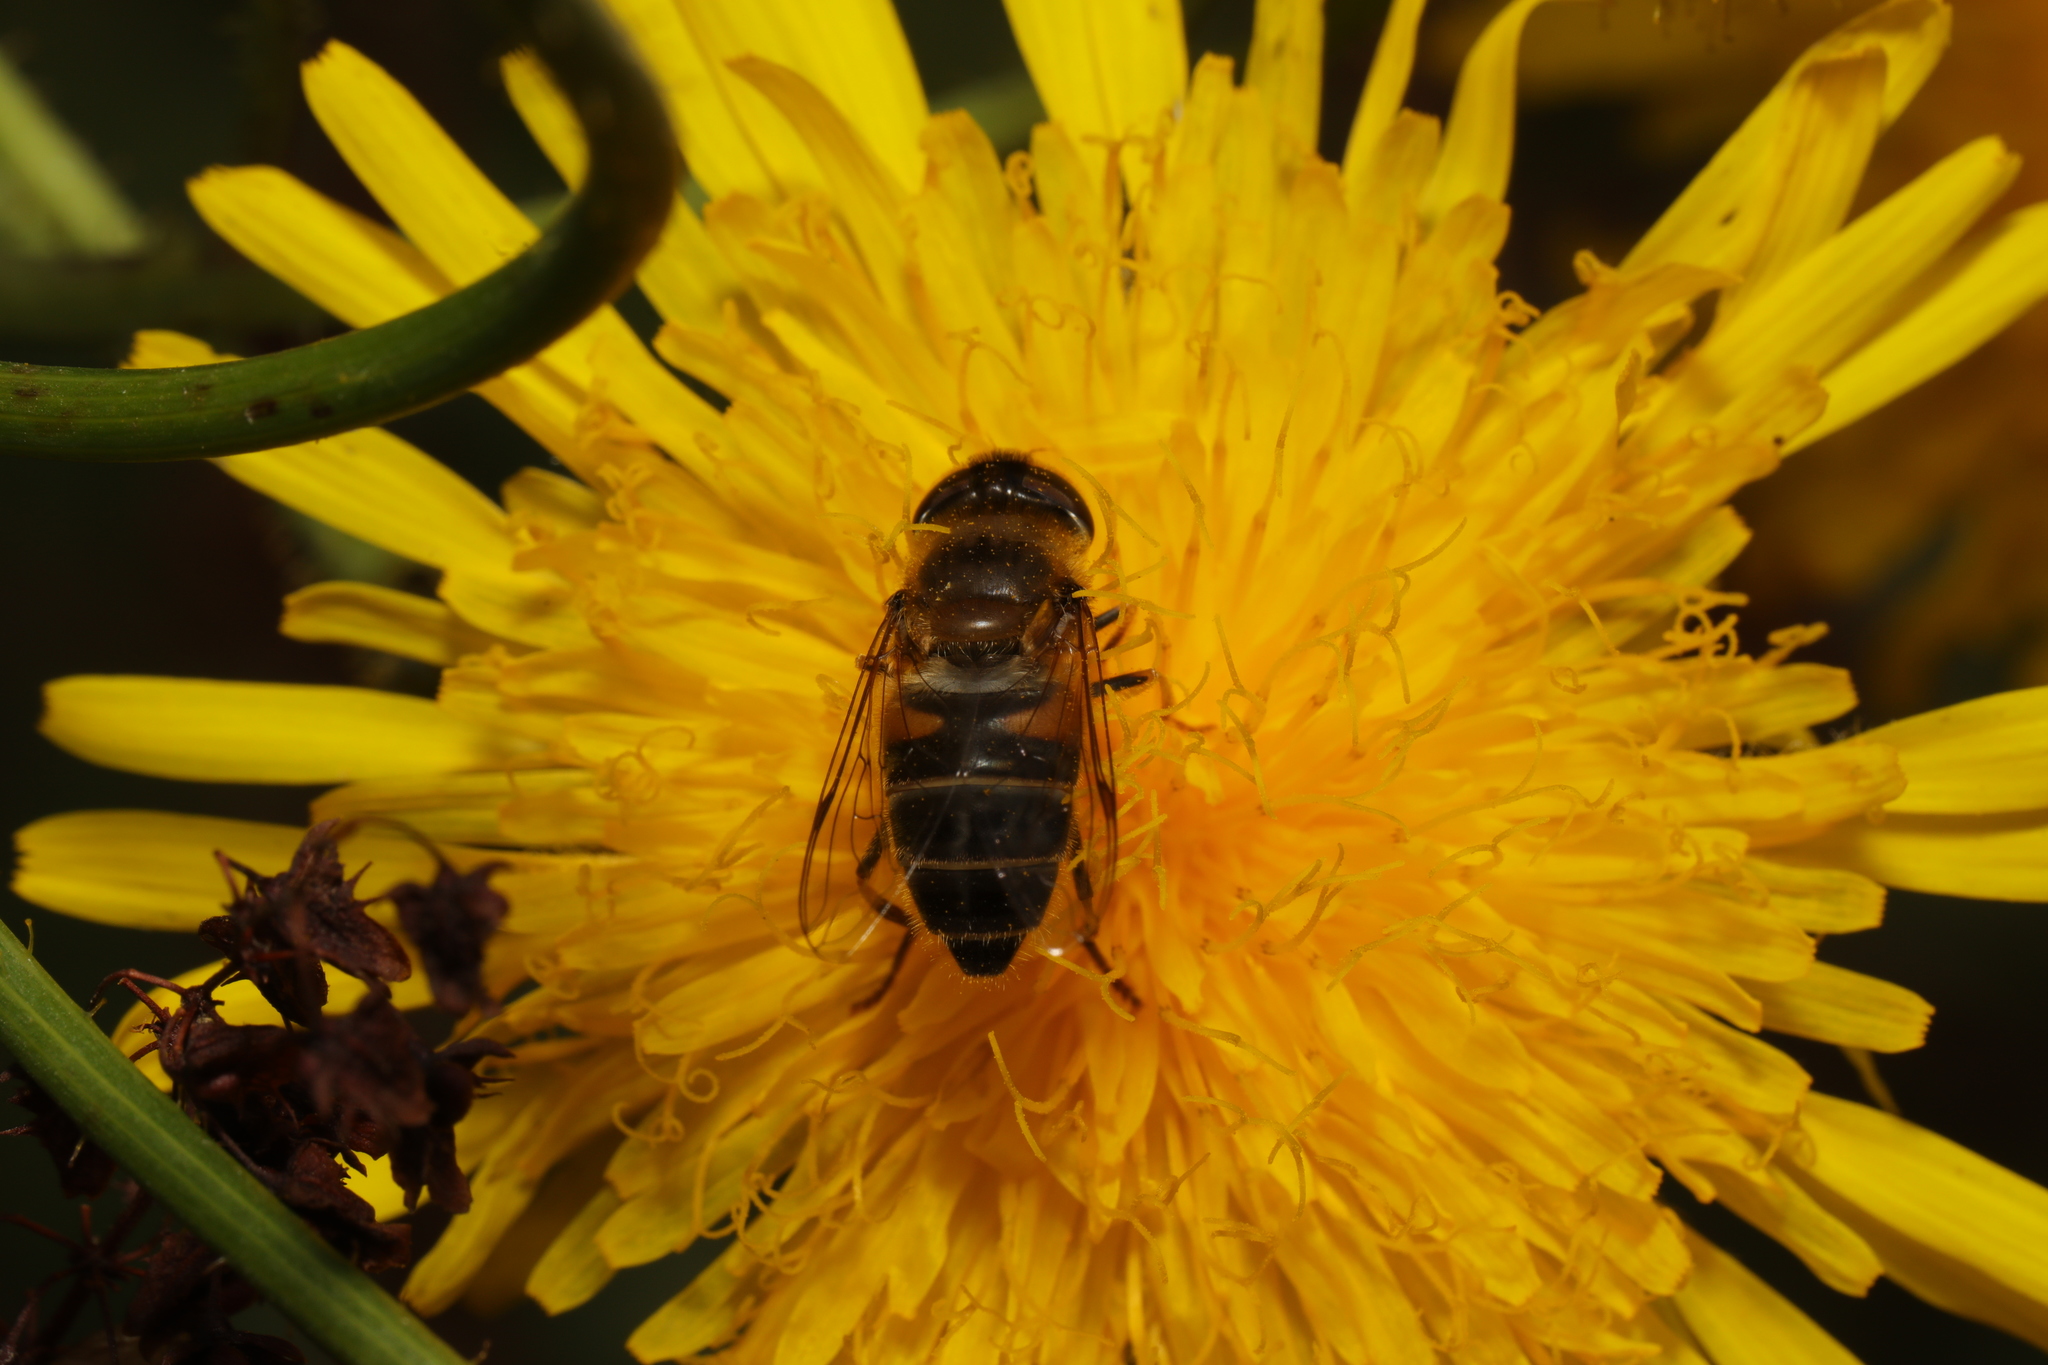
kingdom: Animalia
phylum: Arthropoda
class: Insecta
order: Diptera
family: Syrphidae
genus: Eristalis
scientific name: Eristalis pertinax
